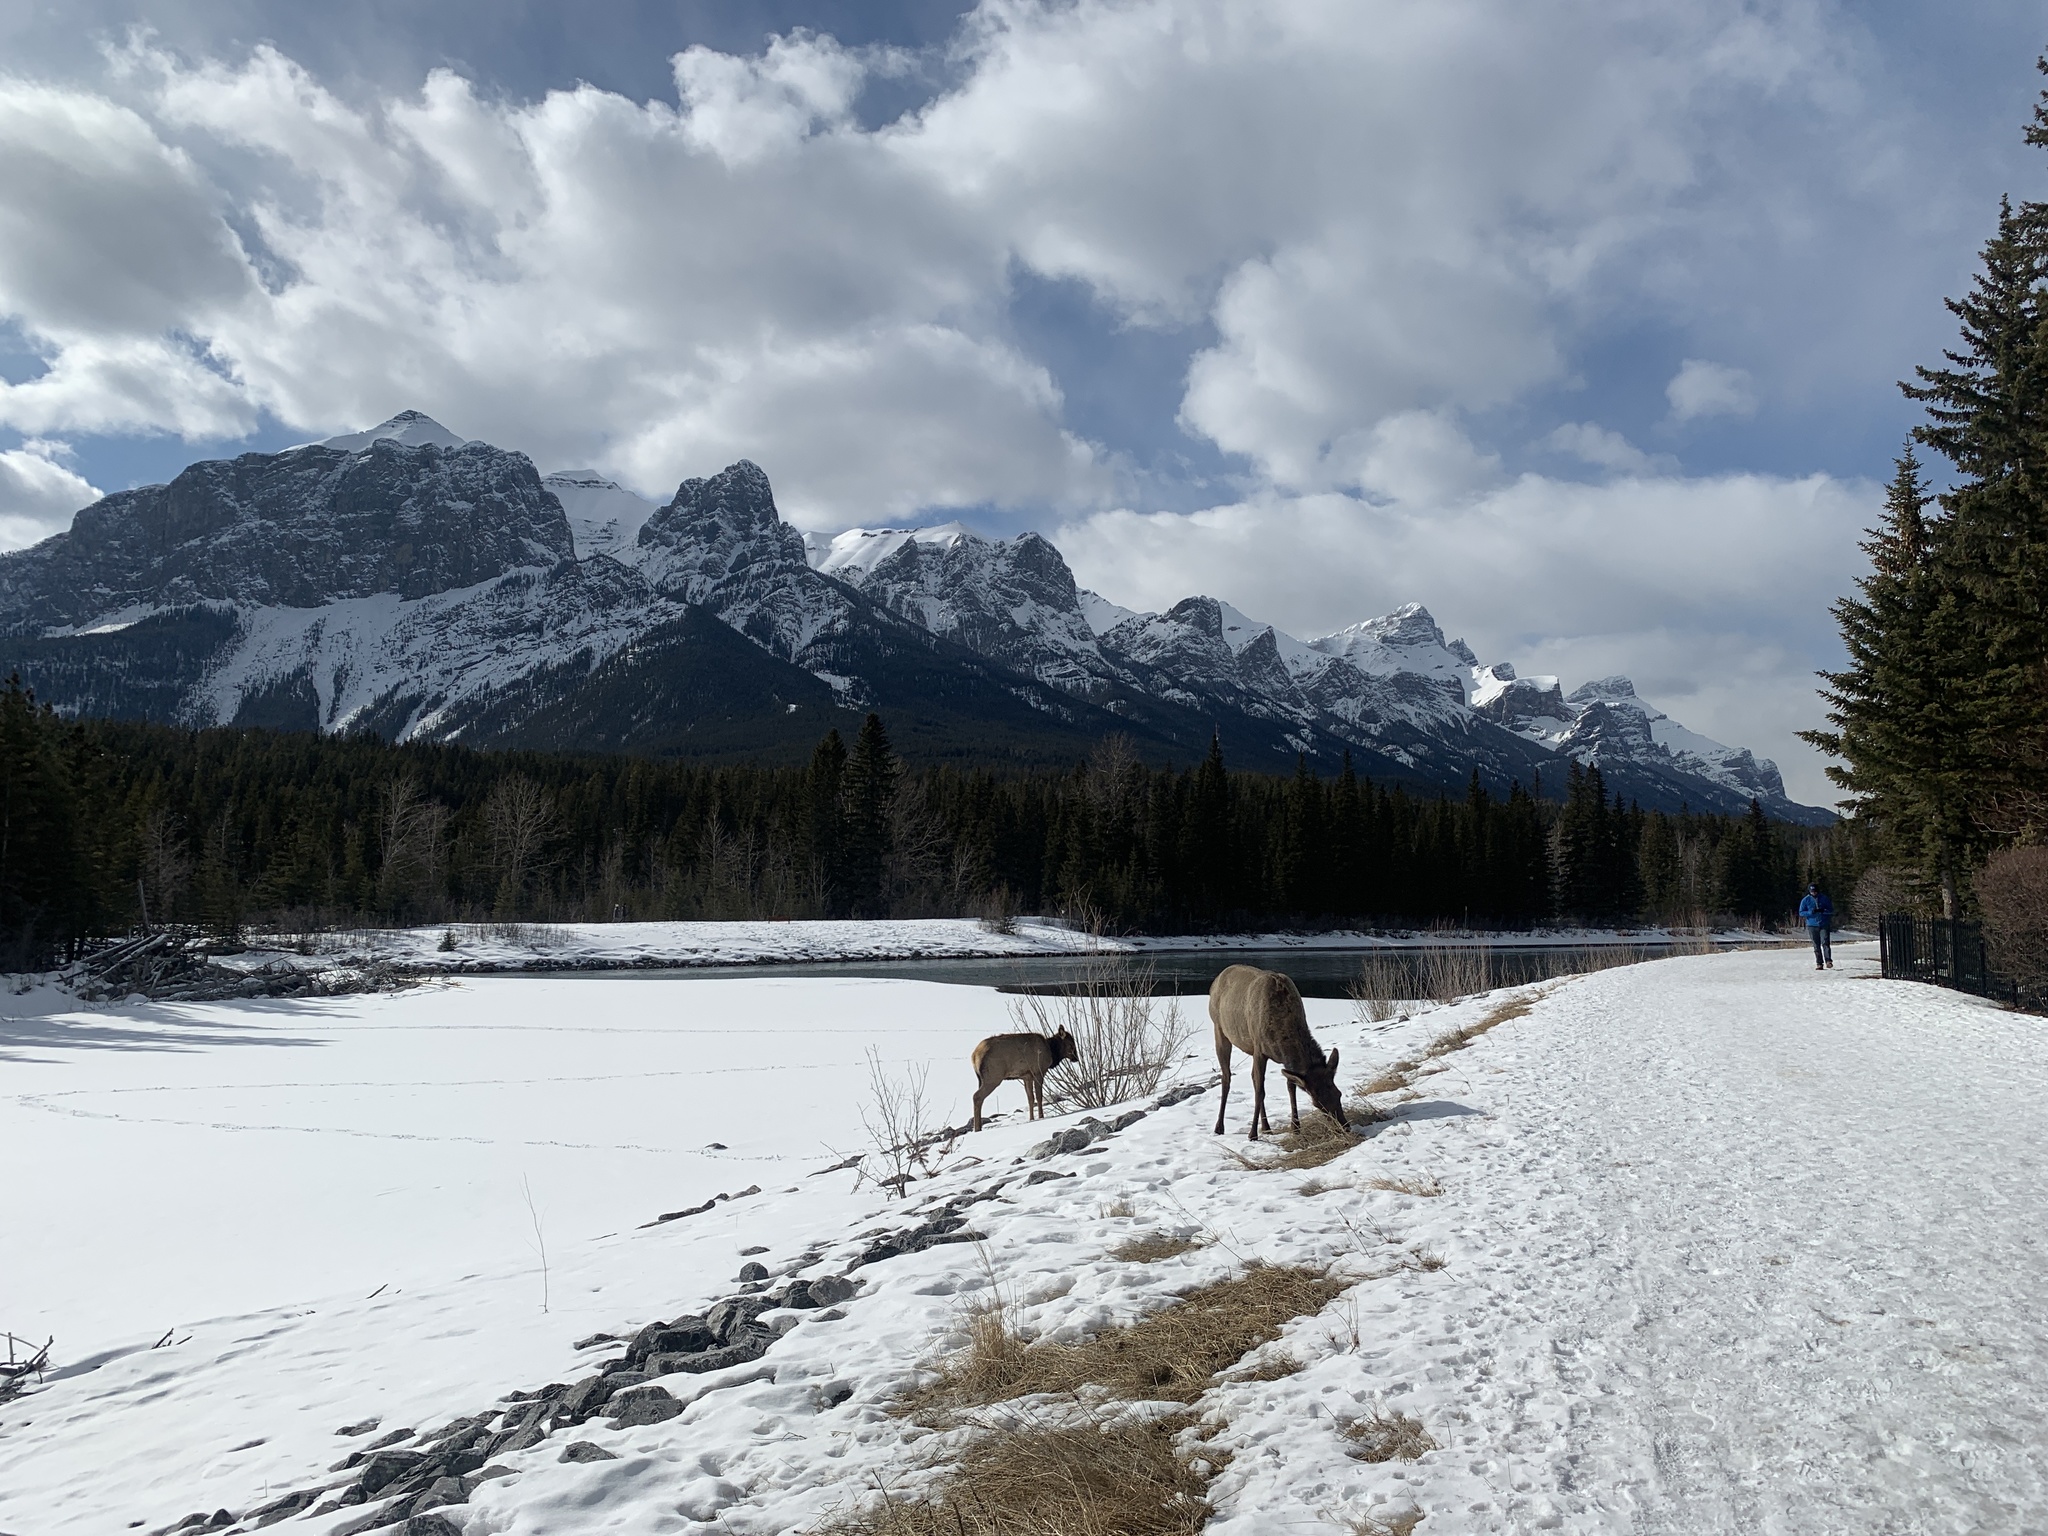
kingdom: Animalia
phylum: Chordata
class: Mammalia
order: Artiodactyla
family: Cervidae
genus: Cervus
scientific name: Cervus elaphus
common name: Red deer
